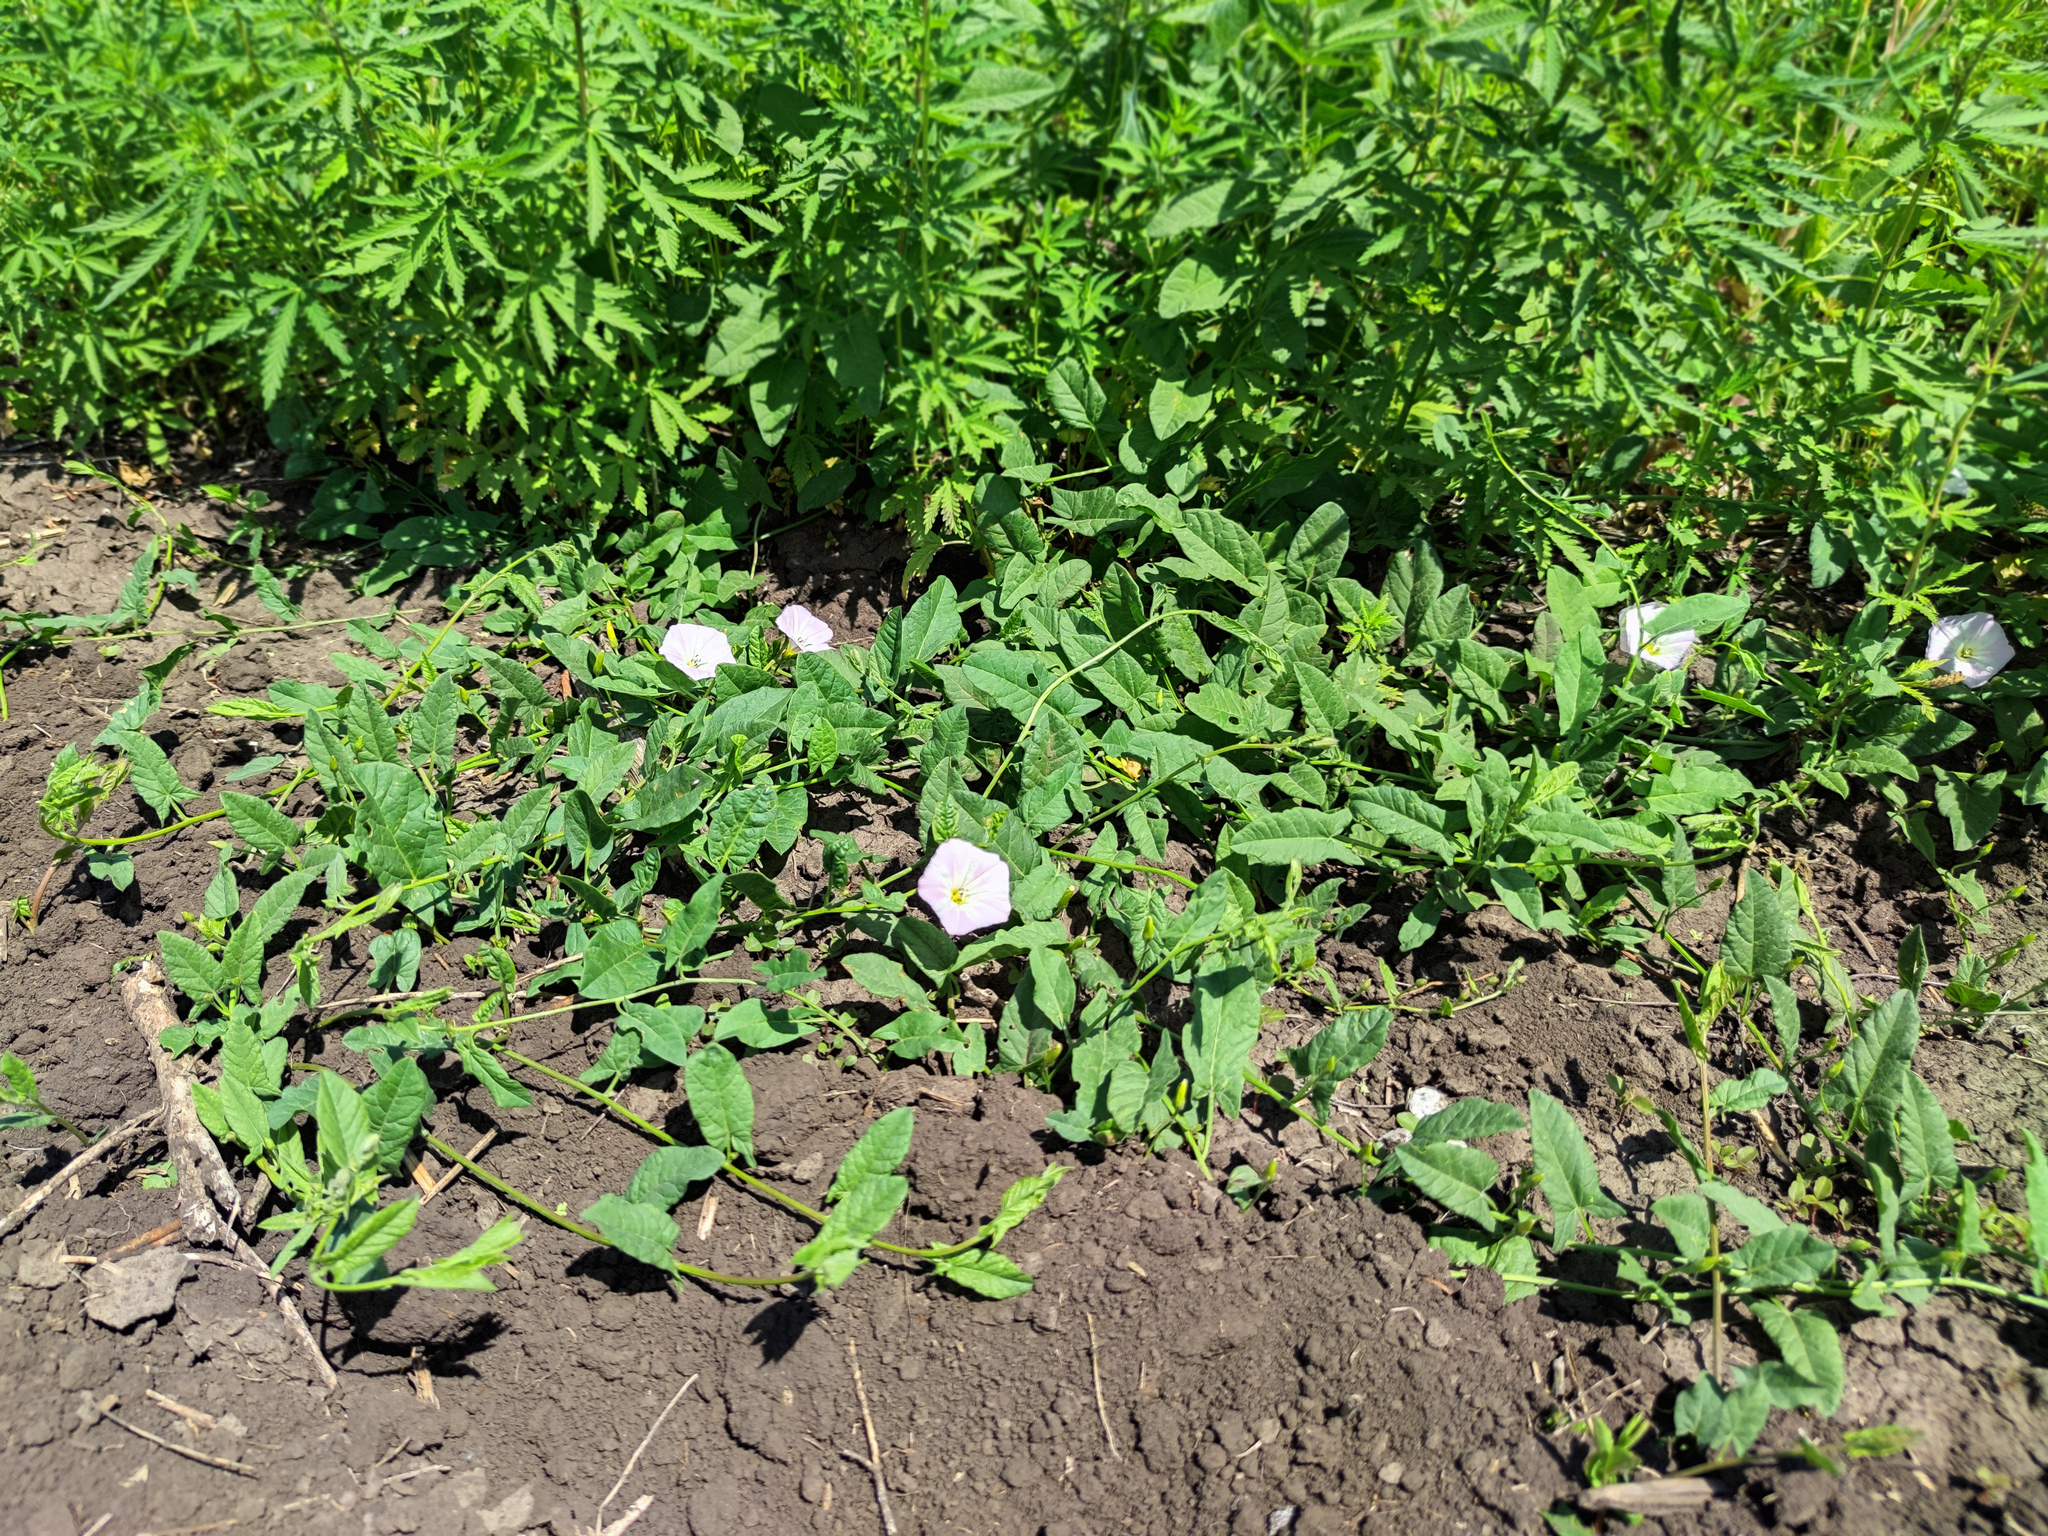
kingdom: Plantae
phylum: Tracheophyta
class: Magnoliopsida
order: Solanales
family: Convolvulaceae
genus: Convolvulus
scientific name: Convolvulus arvensis
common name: Field bindweed
